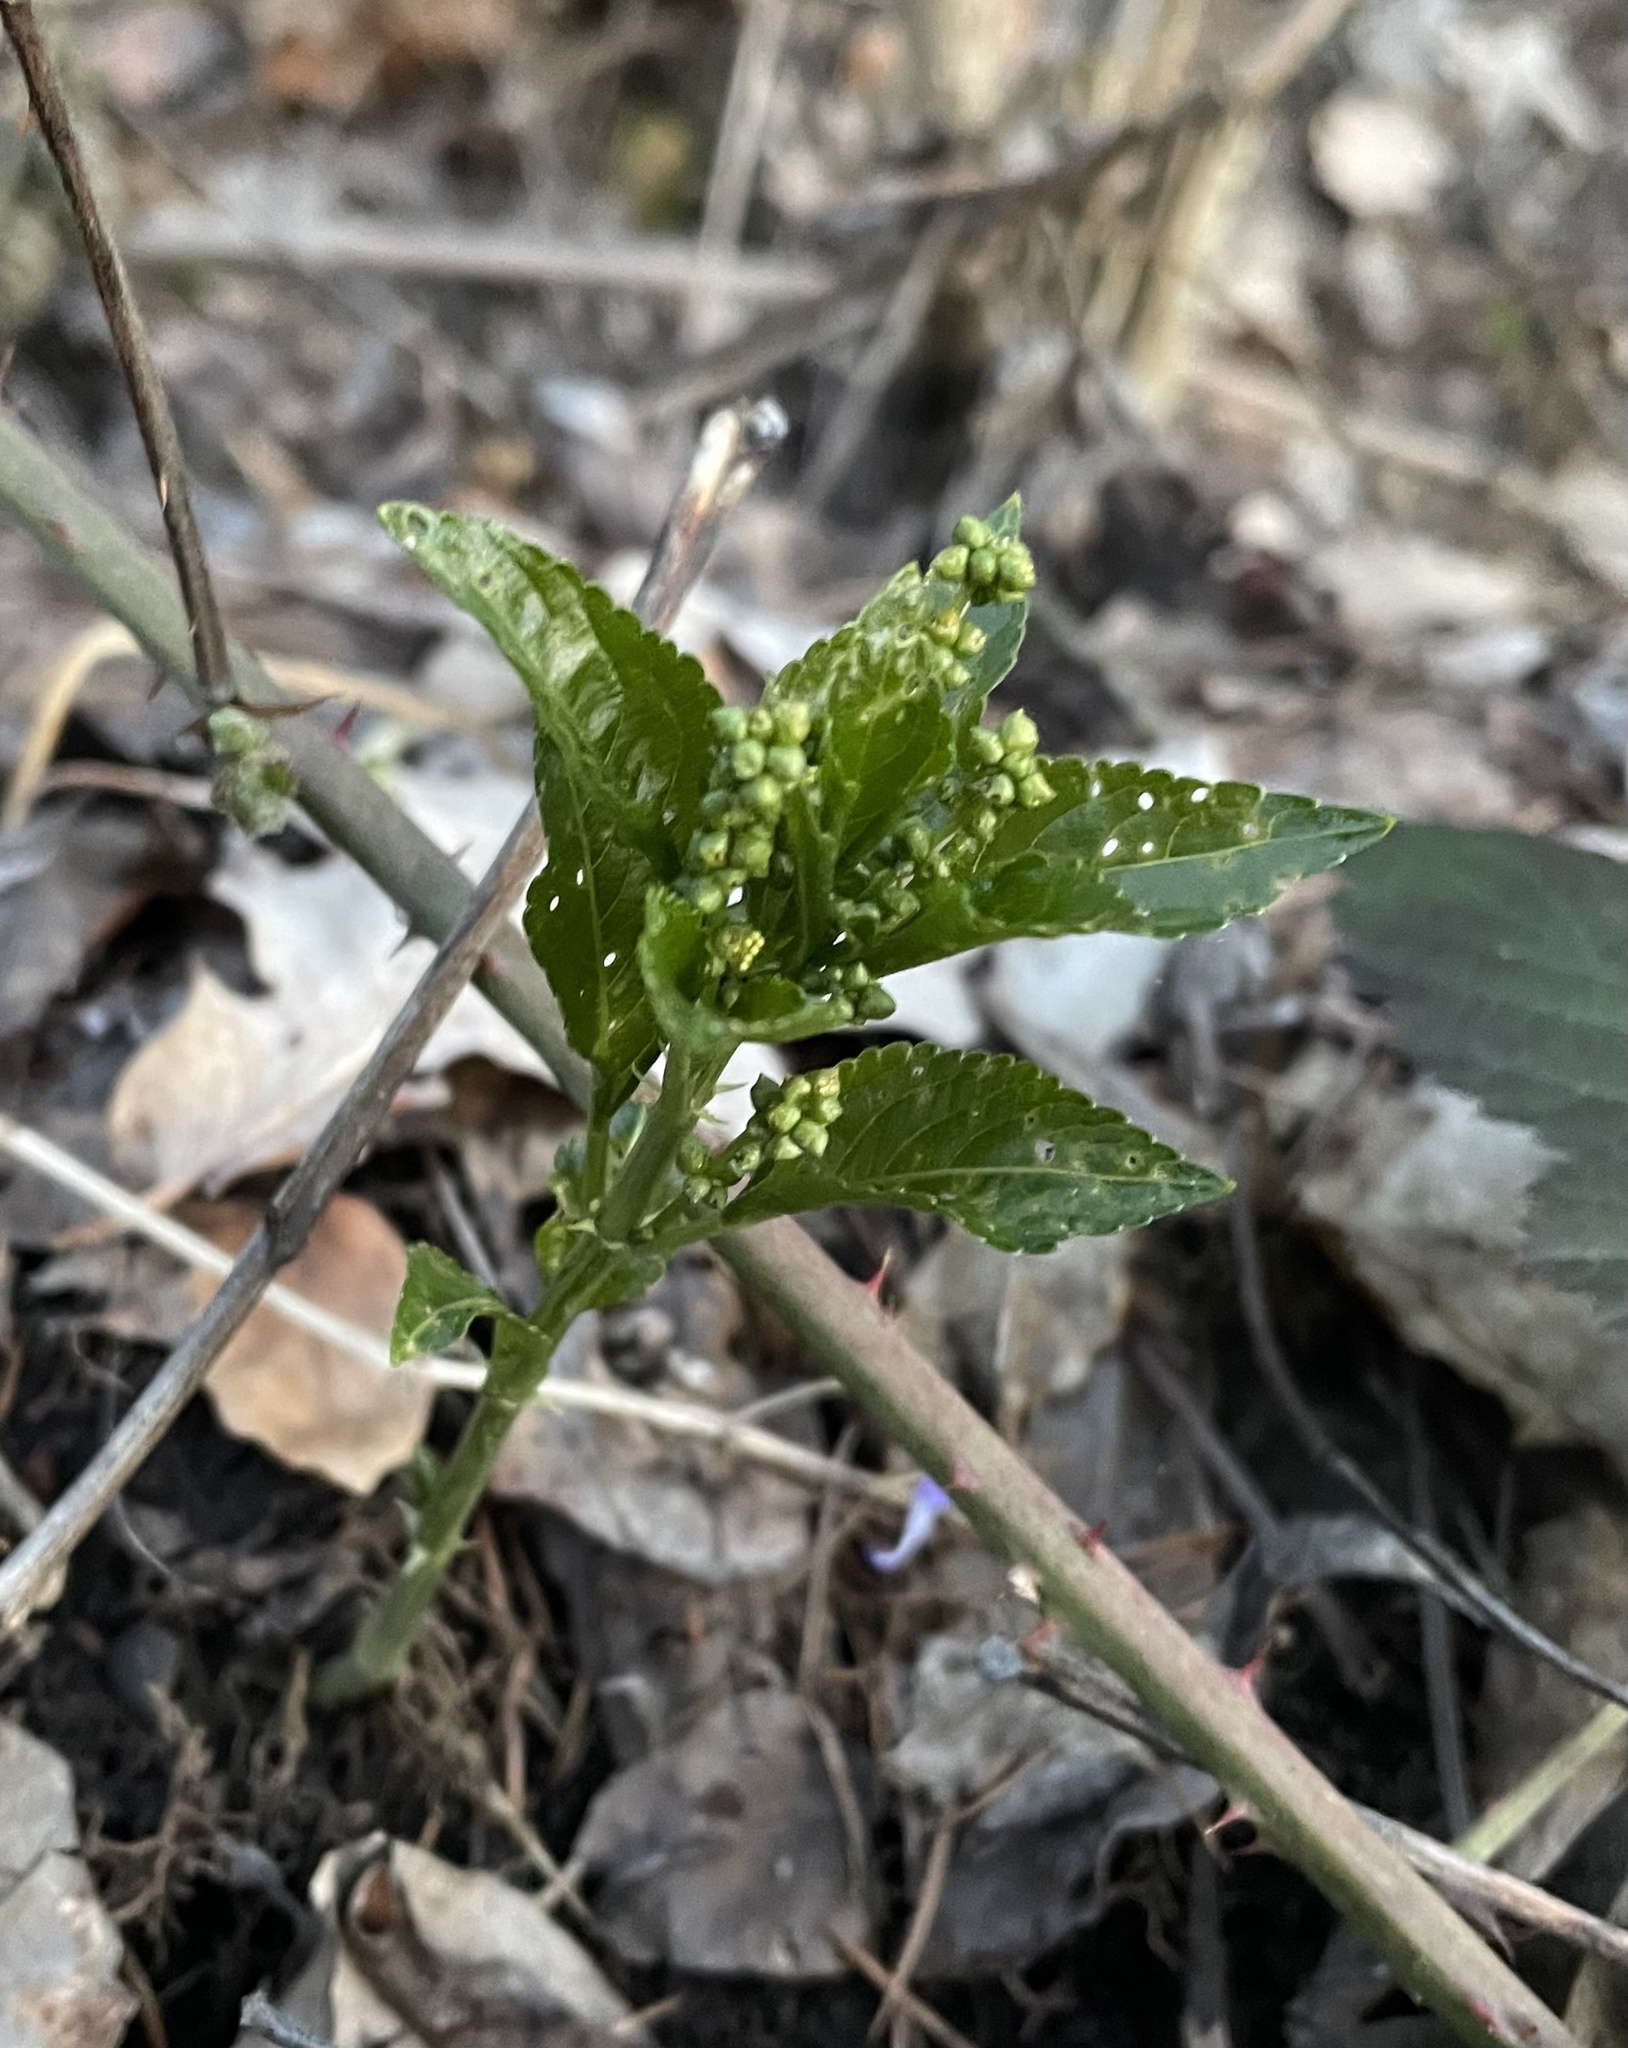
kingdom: Plantae
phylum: Tracheophyta
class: Magnoliopsida
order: Malpighiales
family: Euphorbiaceae
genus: Mercurialis
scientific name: Mercurialis perennis
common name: Dog mercury
